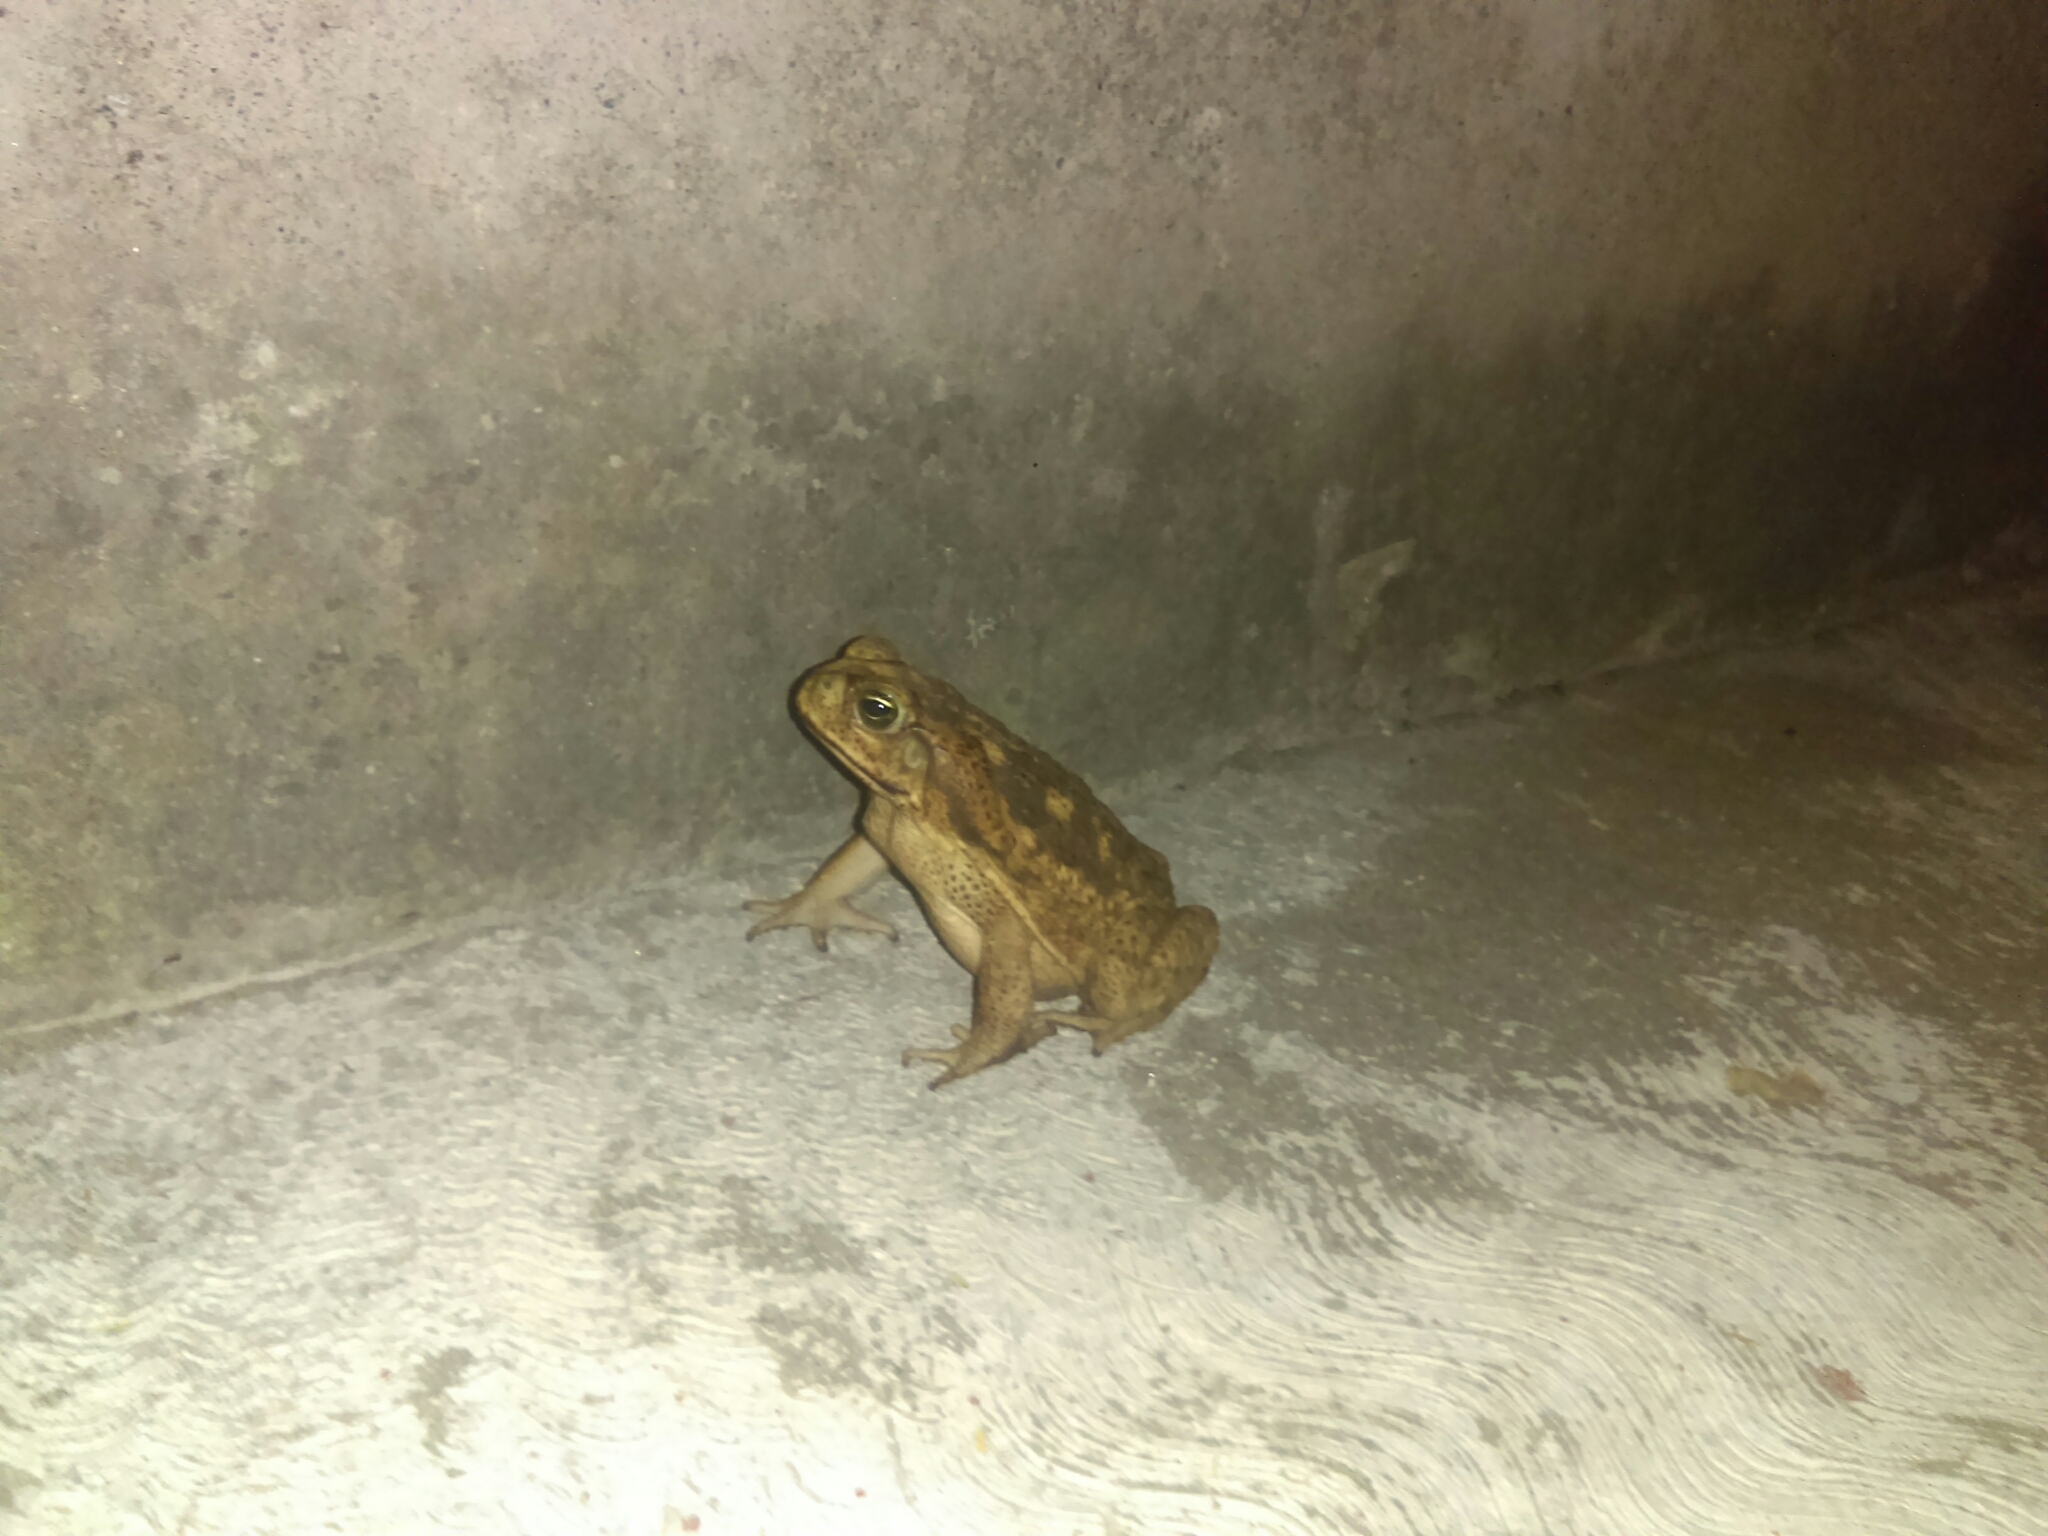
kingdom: Animalia
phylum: Chordata
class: Amphibia
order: Anura
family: Bufonidae
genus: Rhinella
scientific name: Rhinella horribilis
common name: Mesoamerican cane toad
